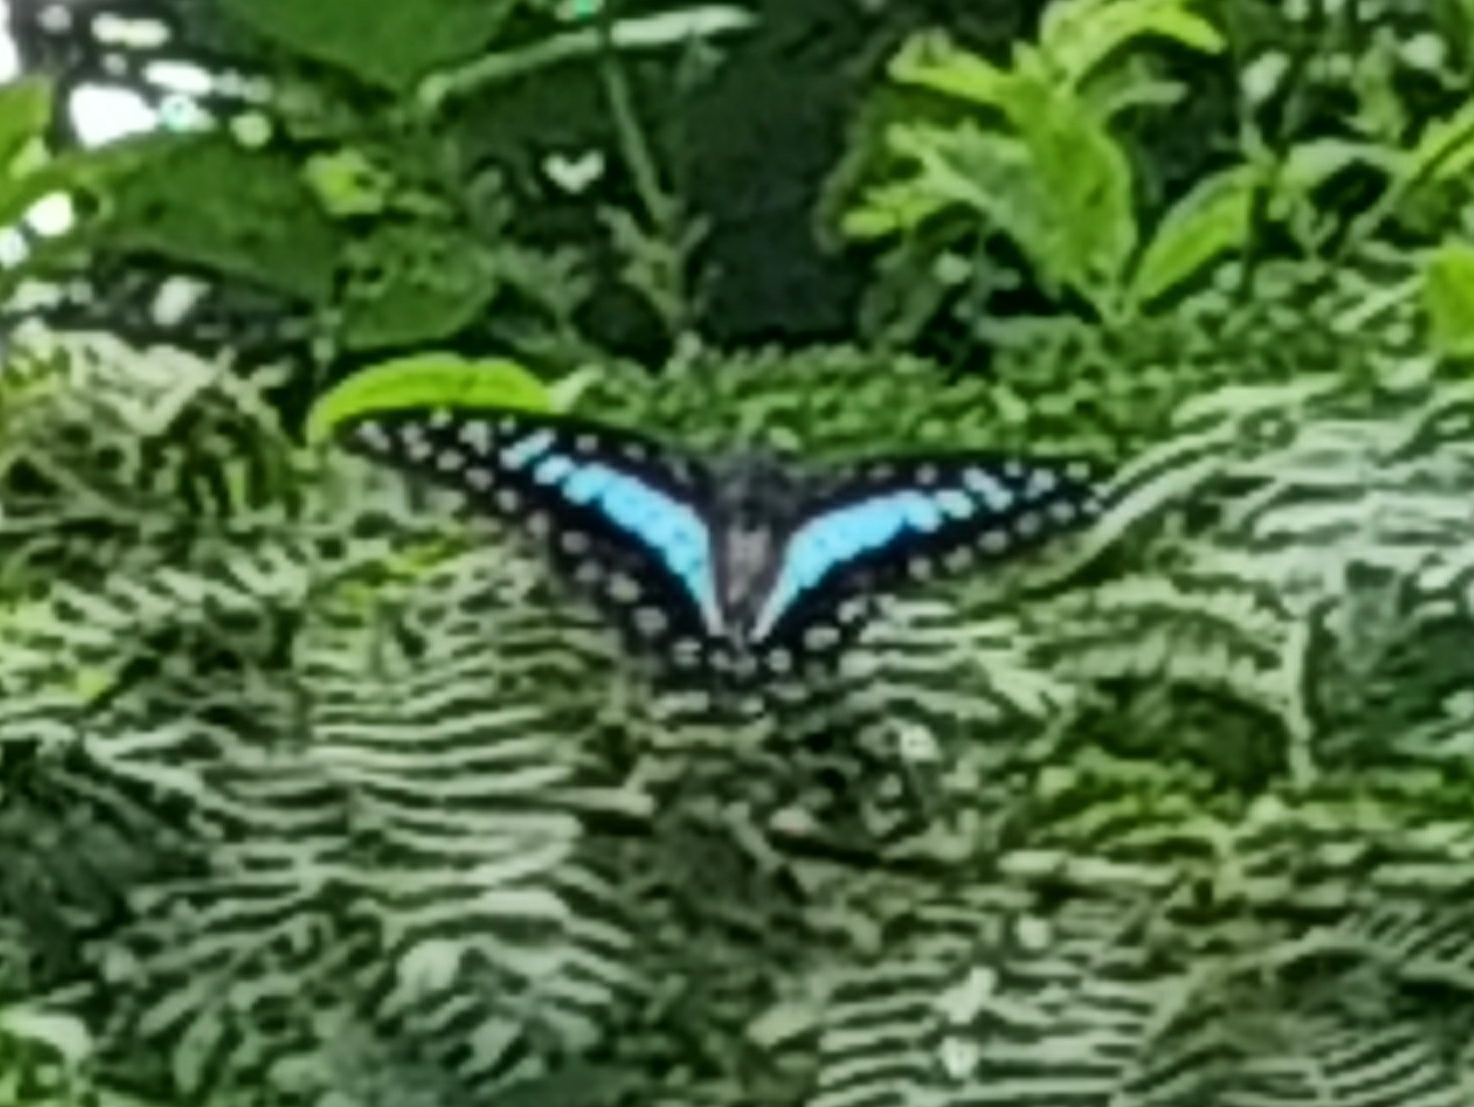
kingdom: Animalia
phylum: Arthropoda
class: Insecta
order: Lepidoptera
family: Papilionidae
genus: Graphium
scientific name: Graphium doson
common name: Common jay
